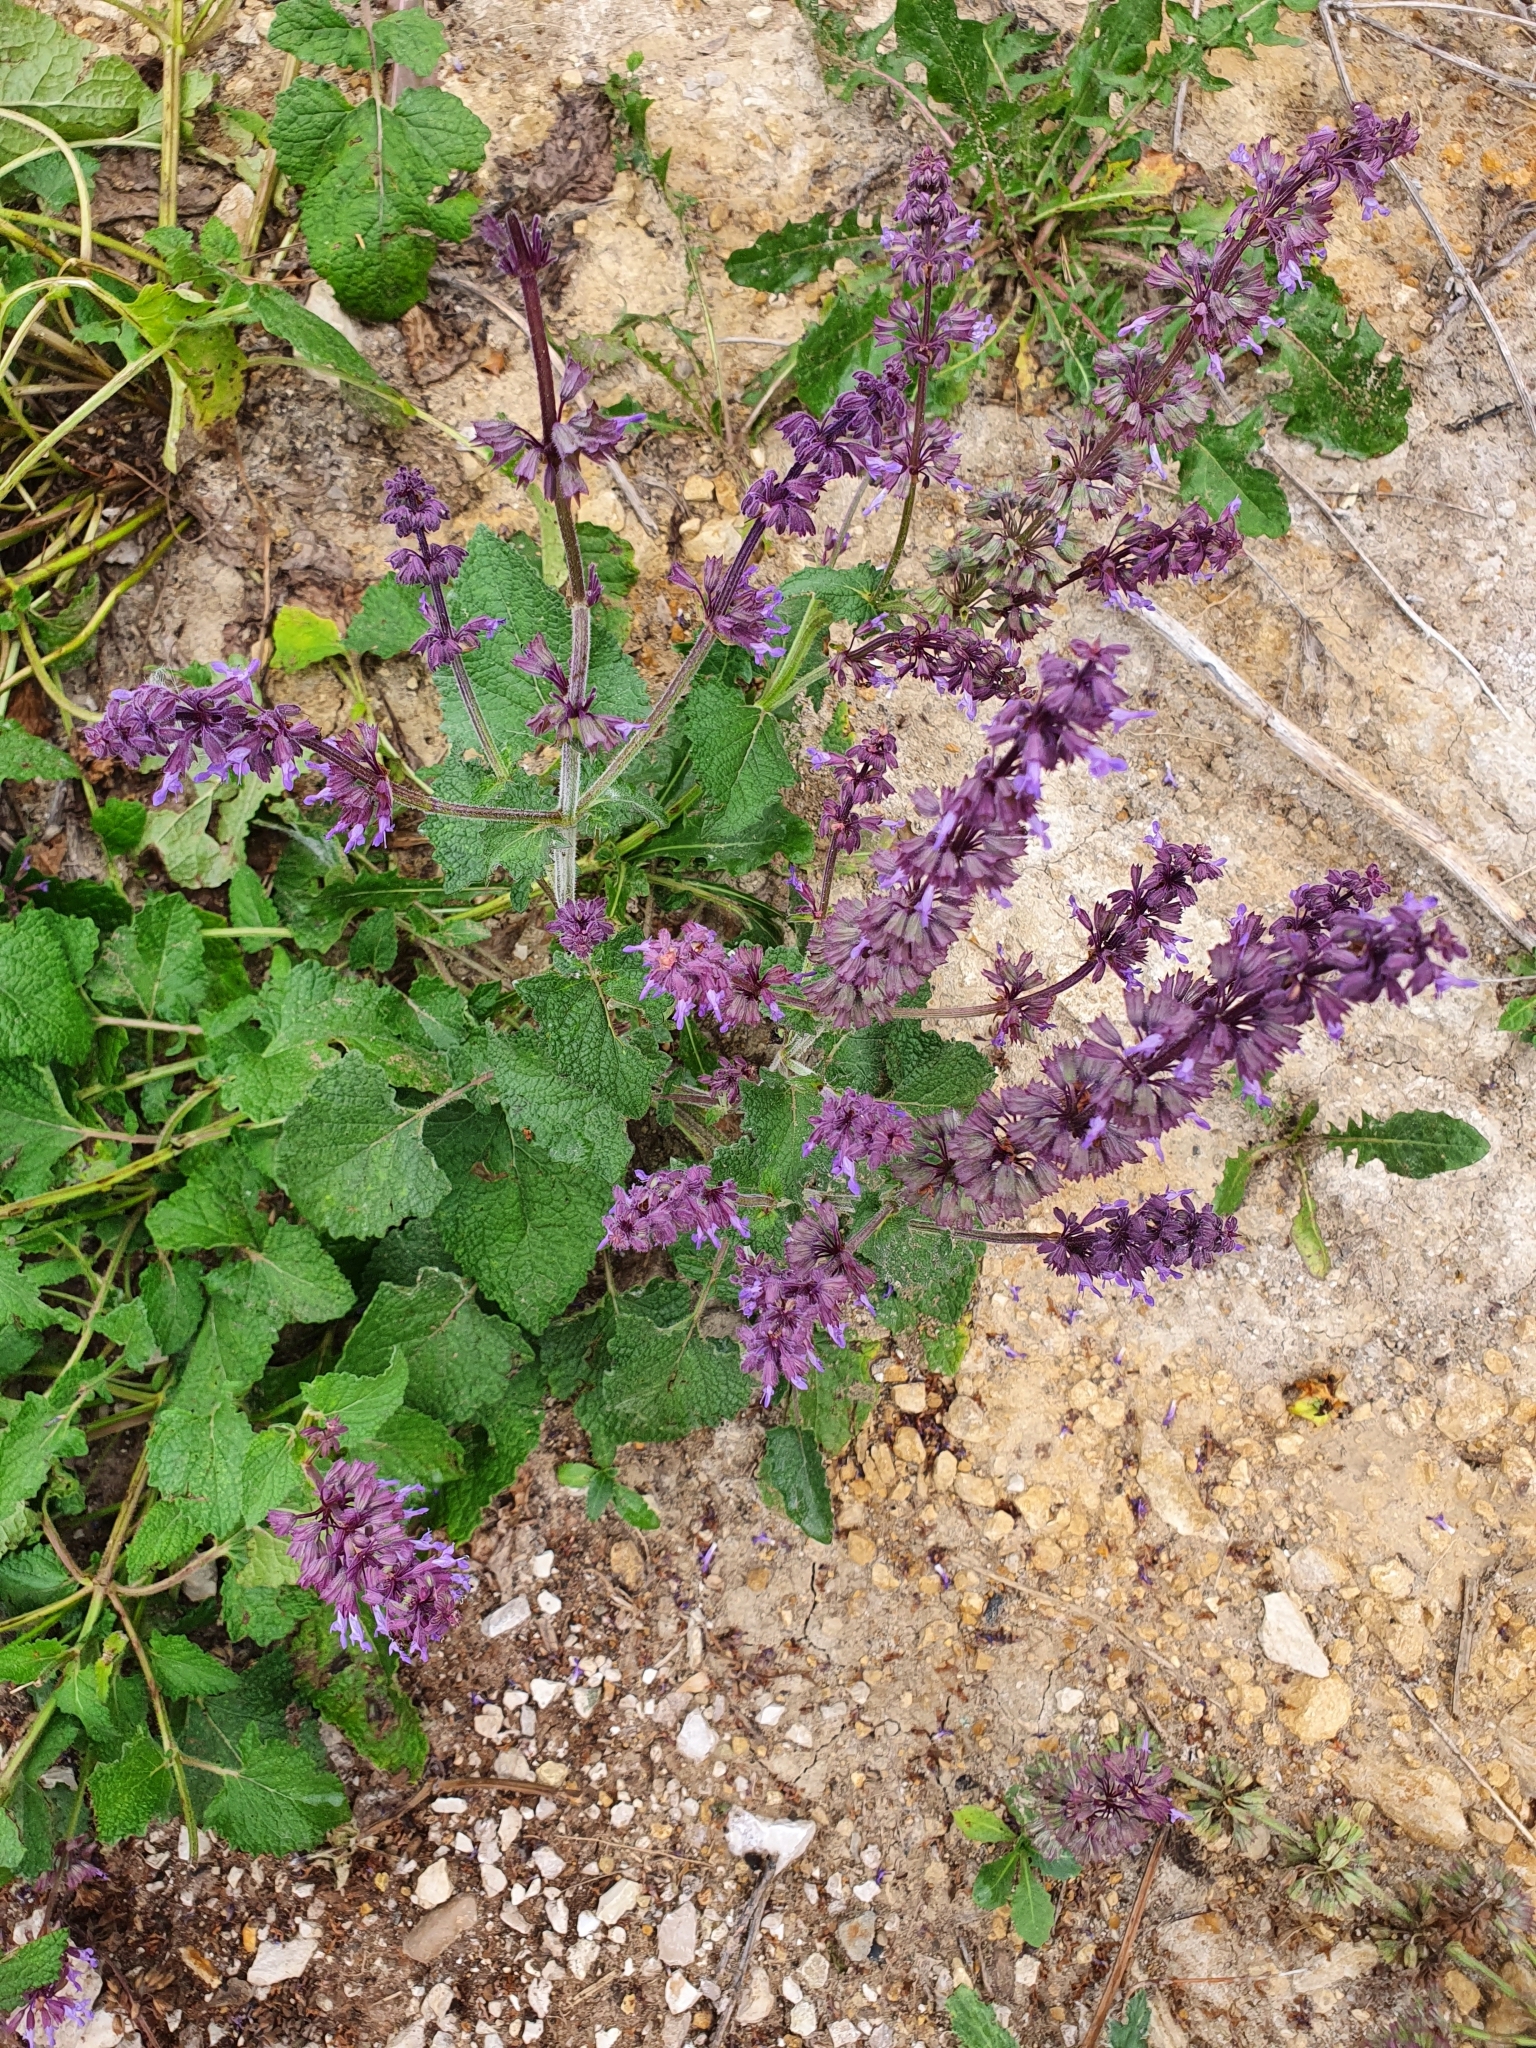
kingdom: Plantae
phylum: Tracheophyta
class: Magnoliopsida
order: Lamiales
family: Lamiaceae
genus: Salvia
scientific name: Salvia verticillata
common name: Whorled clary
